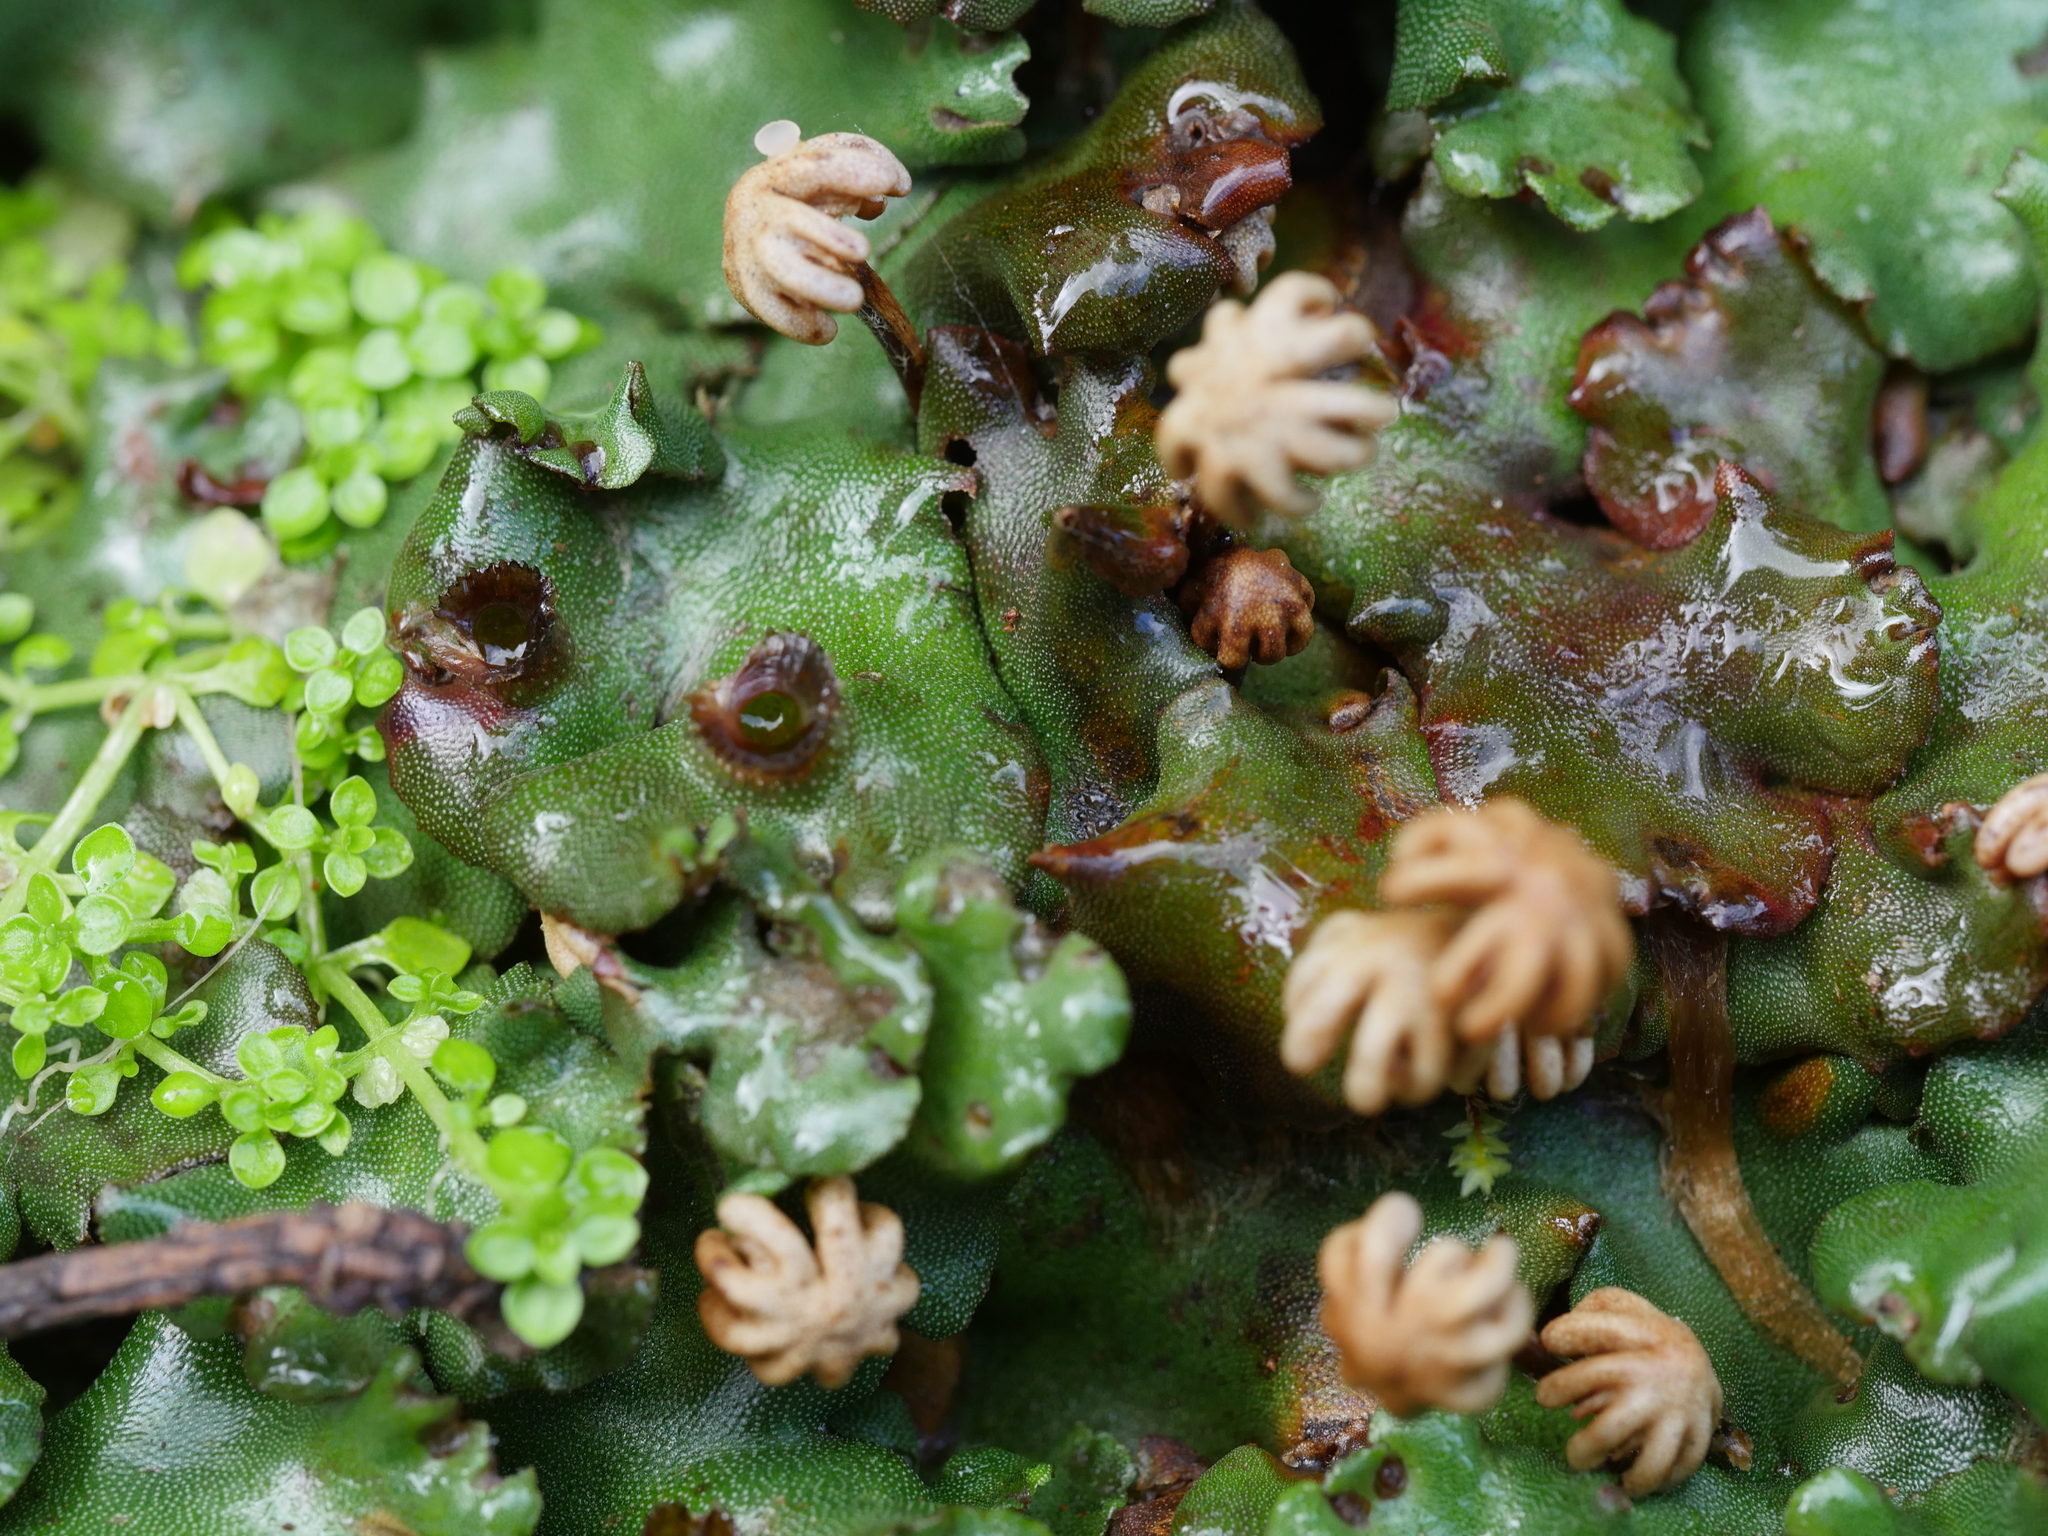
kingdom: Plantae
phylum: Marchantiophyta
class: Marchantiopsida
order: Marchantiales
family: Marchantiaceae
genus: Marchantia
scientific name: Marchantia berteroana
